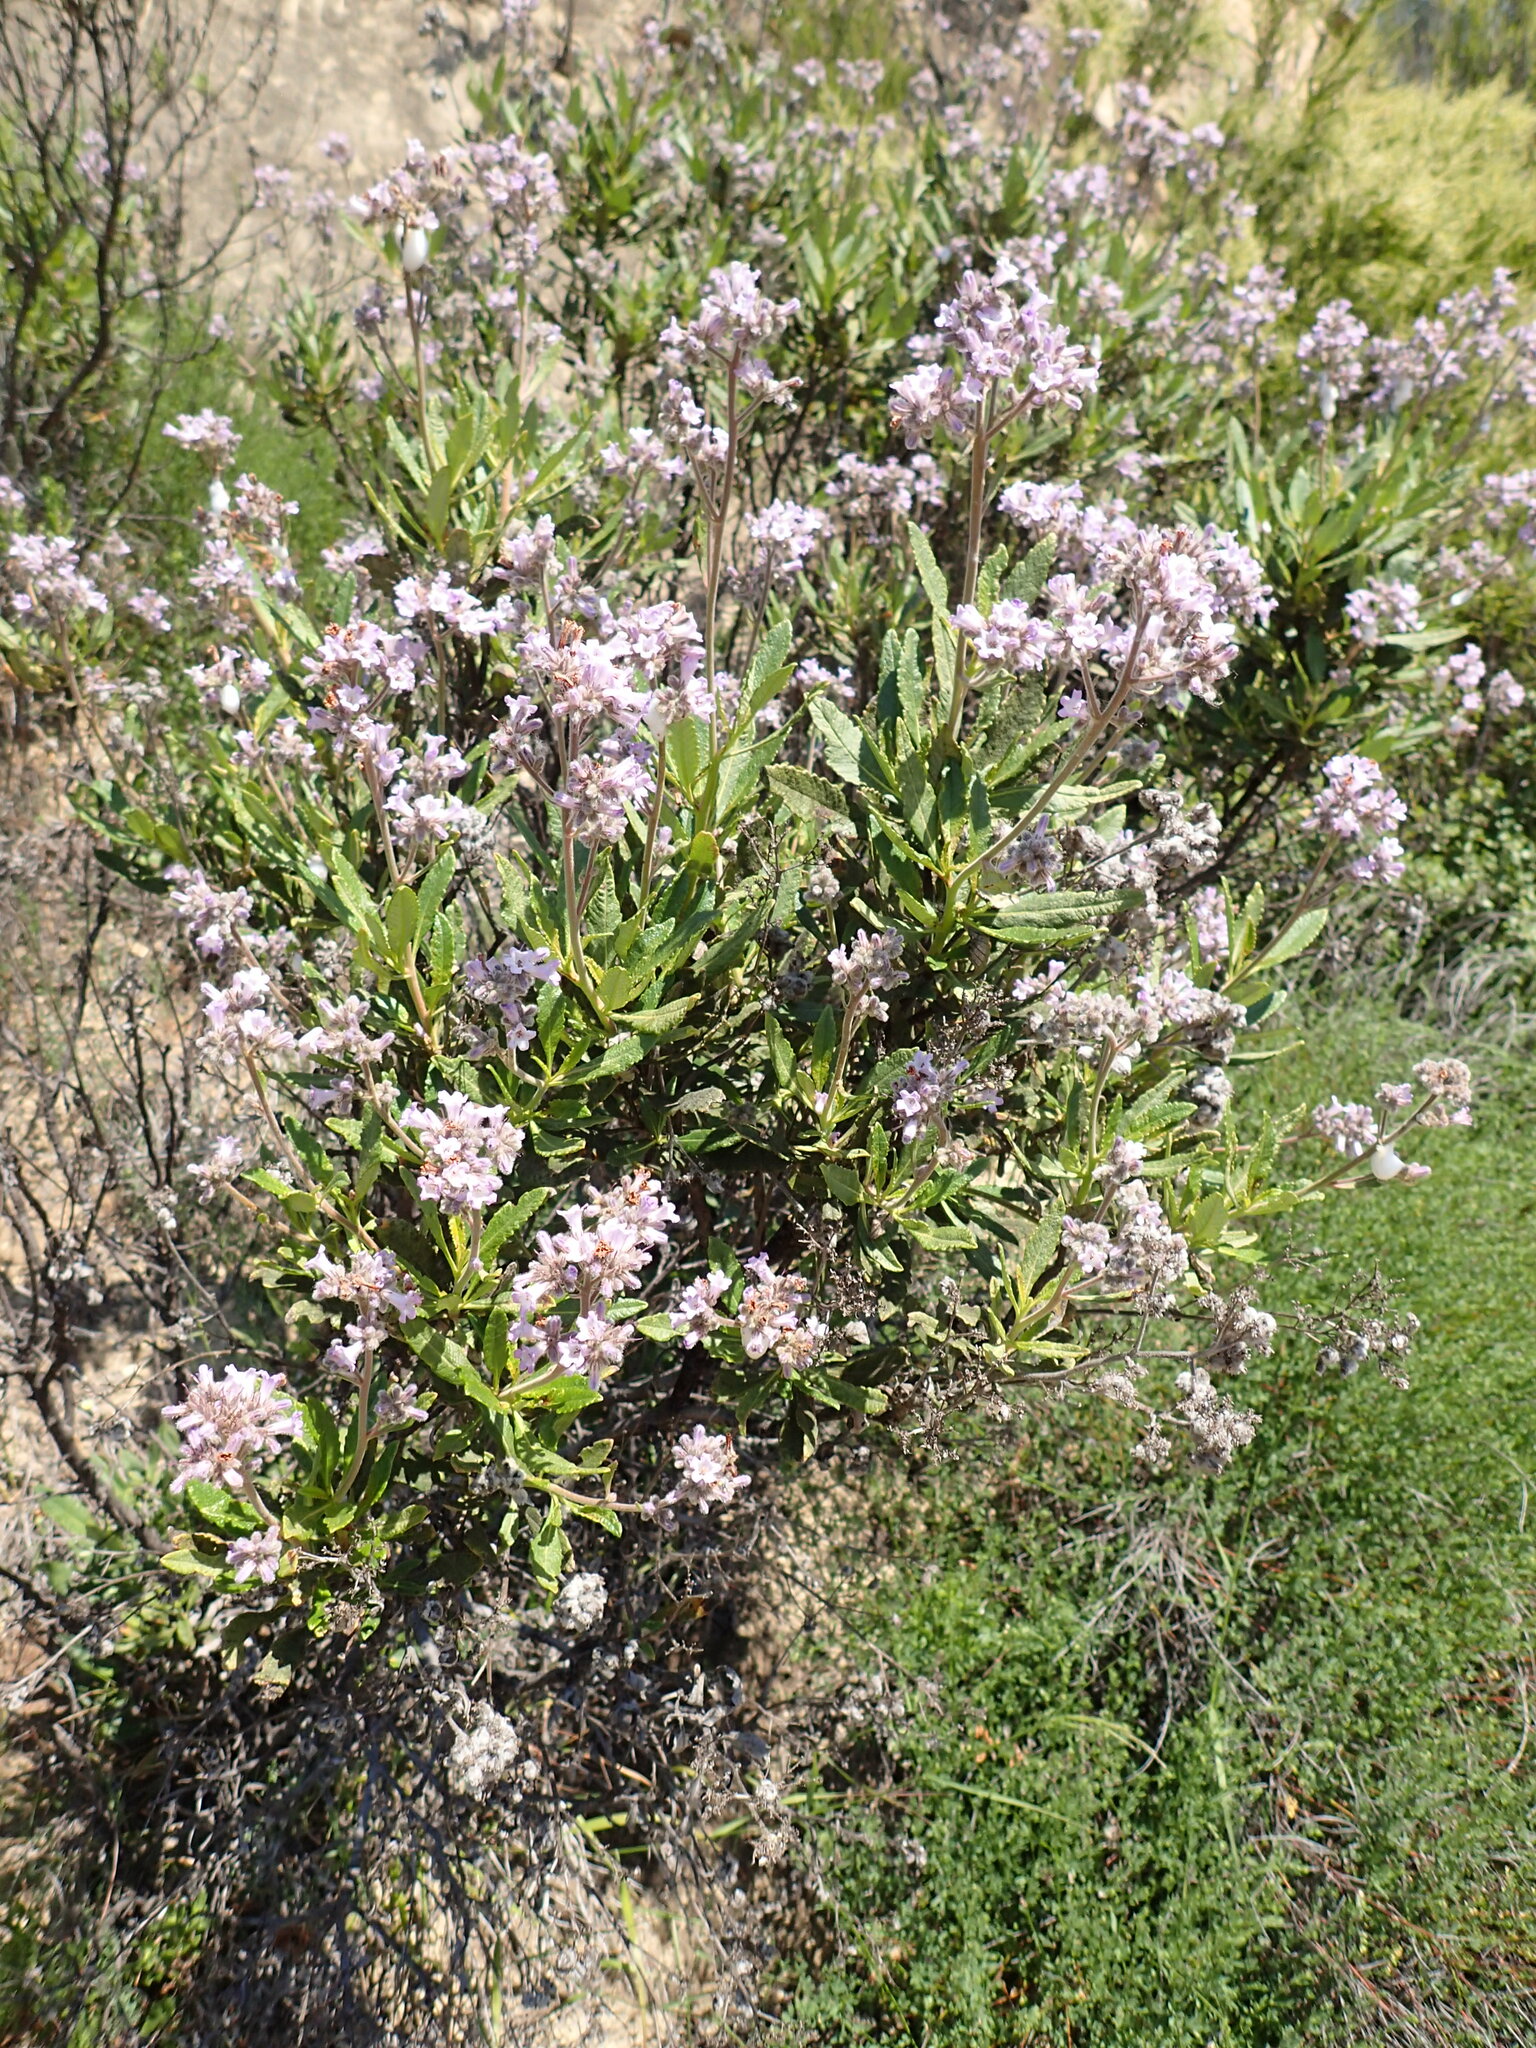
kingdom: Plantae
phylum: Tracheophyta
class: Magnoliopsida
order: Boraginales
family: Namaceae
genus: Eriodictyon
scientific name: Eriodictyon crassifolium
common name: Thick-leaf yerba-santa
